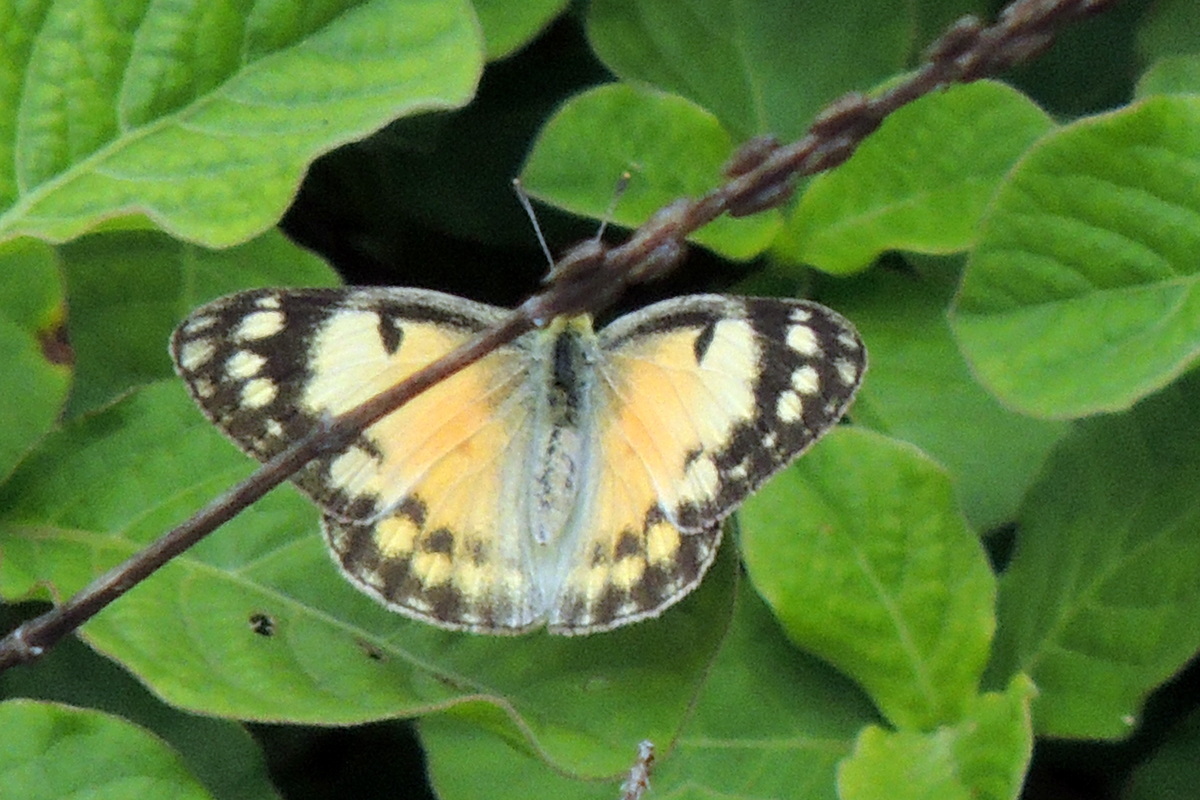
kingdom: Animalia
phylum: Arthropoda
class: Insecta
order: Lepidoptera
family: Pieridae
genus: Colotis
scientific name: Colotis amata
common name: Small salmon arab
